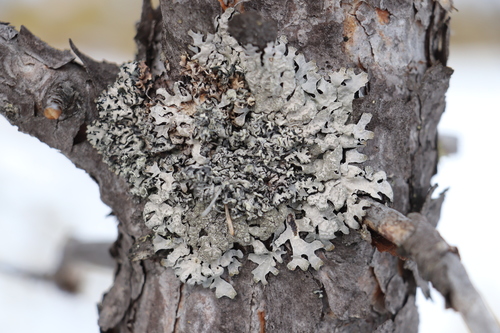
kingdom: Fungi
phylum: Ascomycota
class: Lecanoromycetes
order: Lecanorales
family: Parmeliaceae
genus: Parmelia
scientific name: Parmelia sulcata
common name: Netted shield lichen
